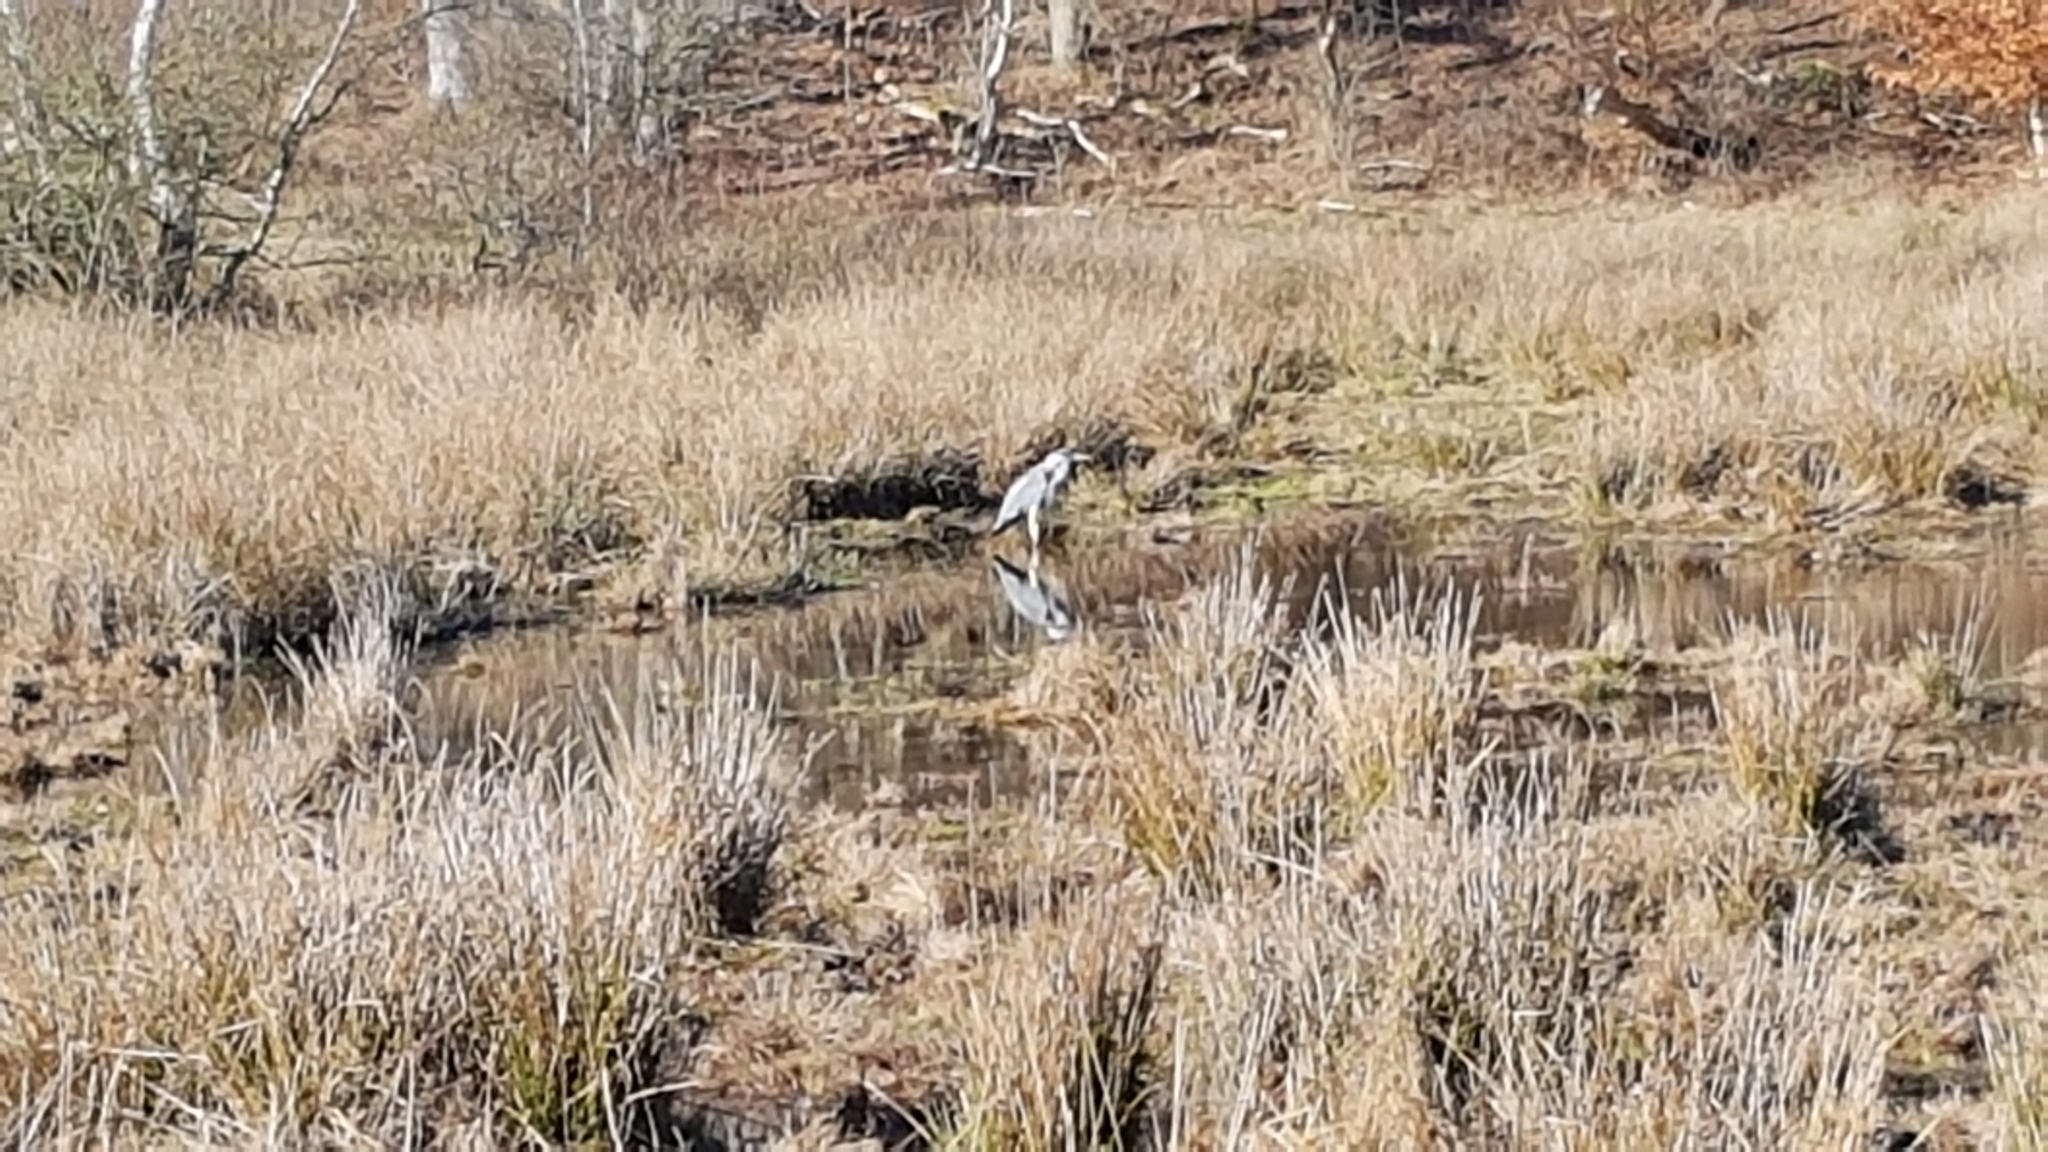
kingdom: Animalia
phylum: Chordata
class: Aves
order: Pelecaniformes
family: Ardeidae
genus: Ardea
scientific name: Ardea cinerea
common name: Grey heron
